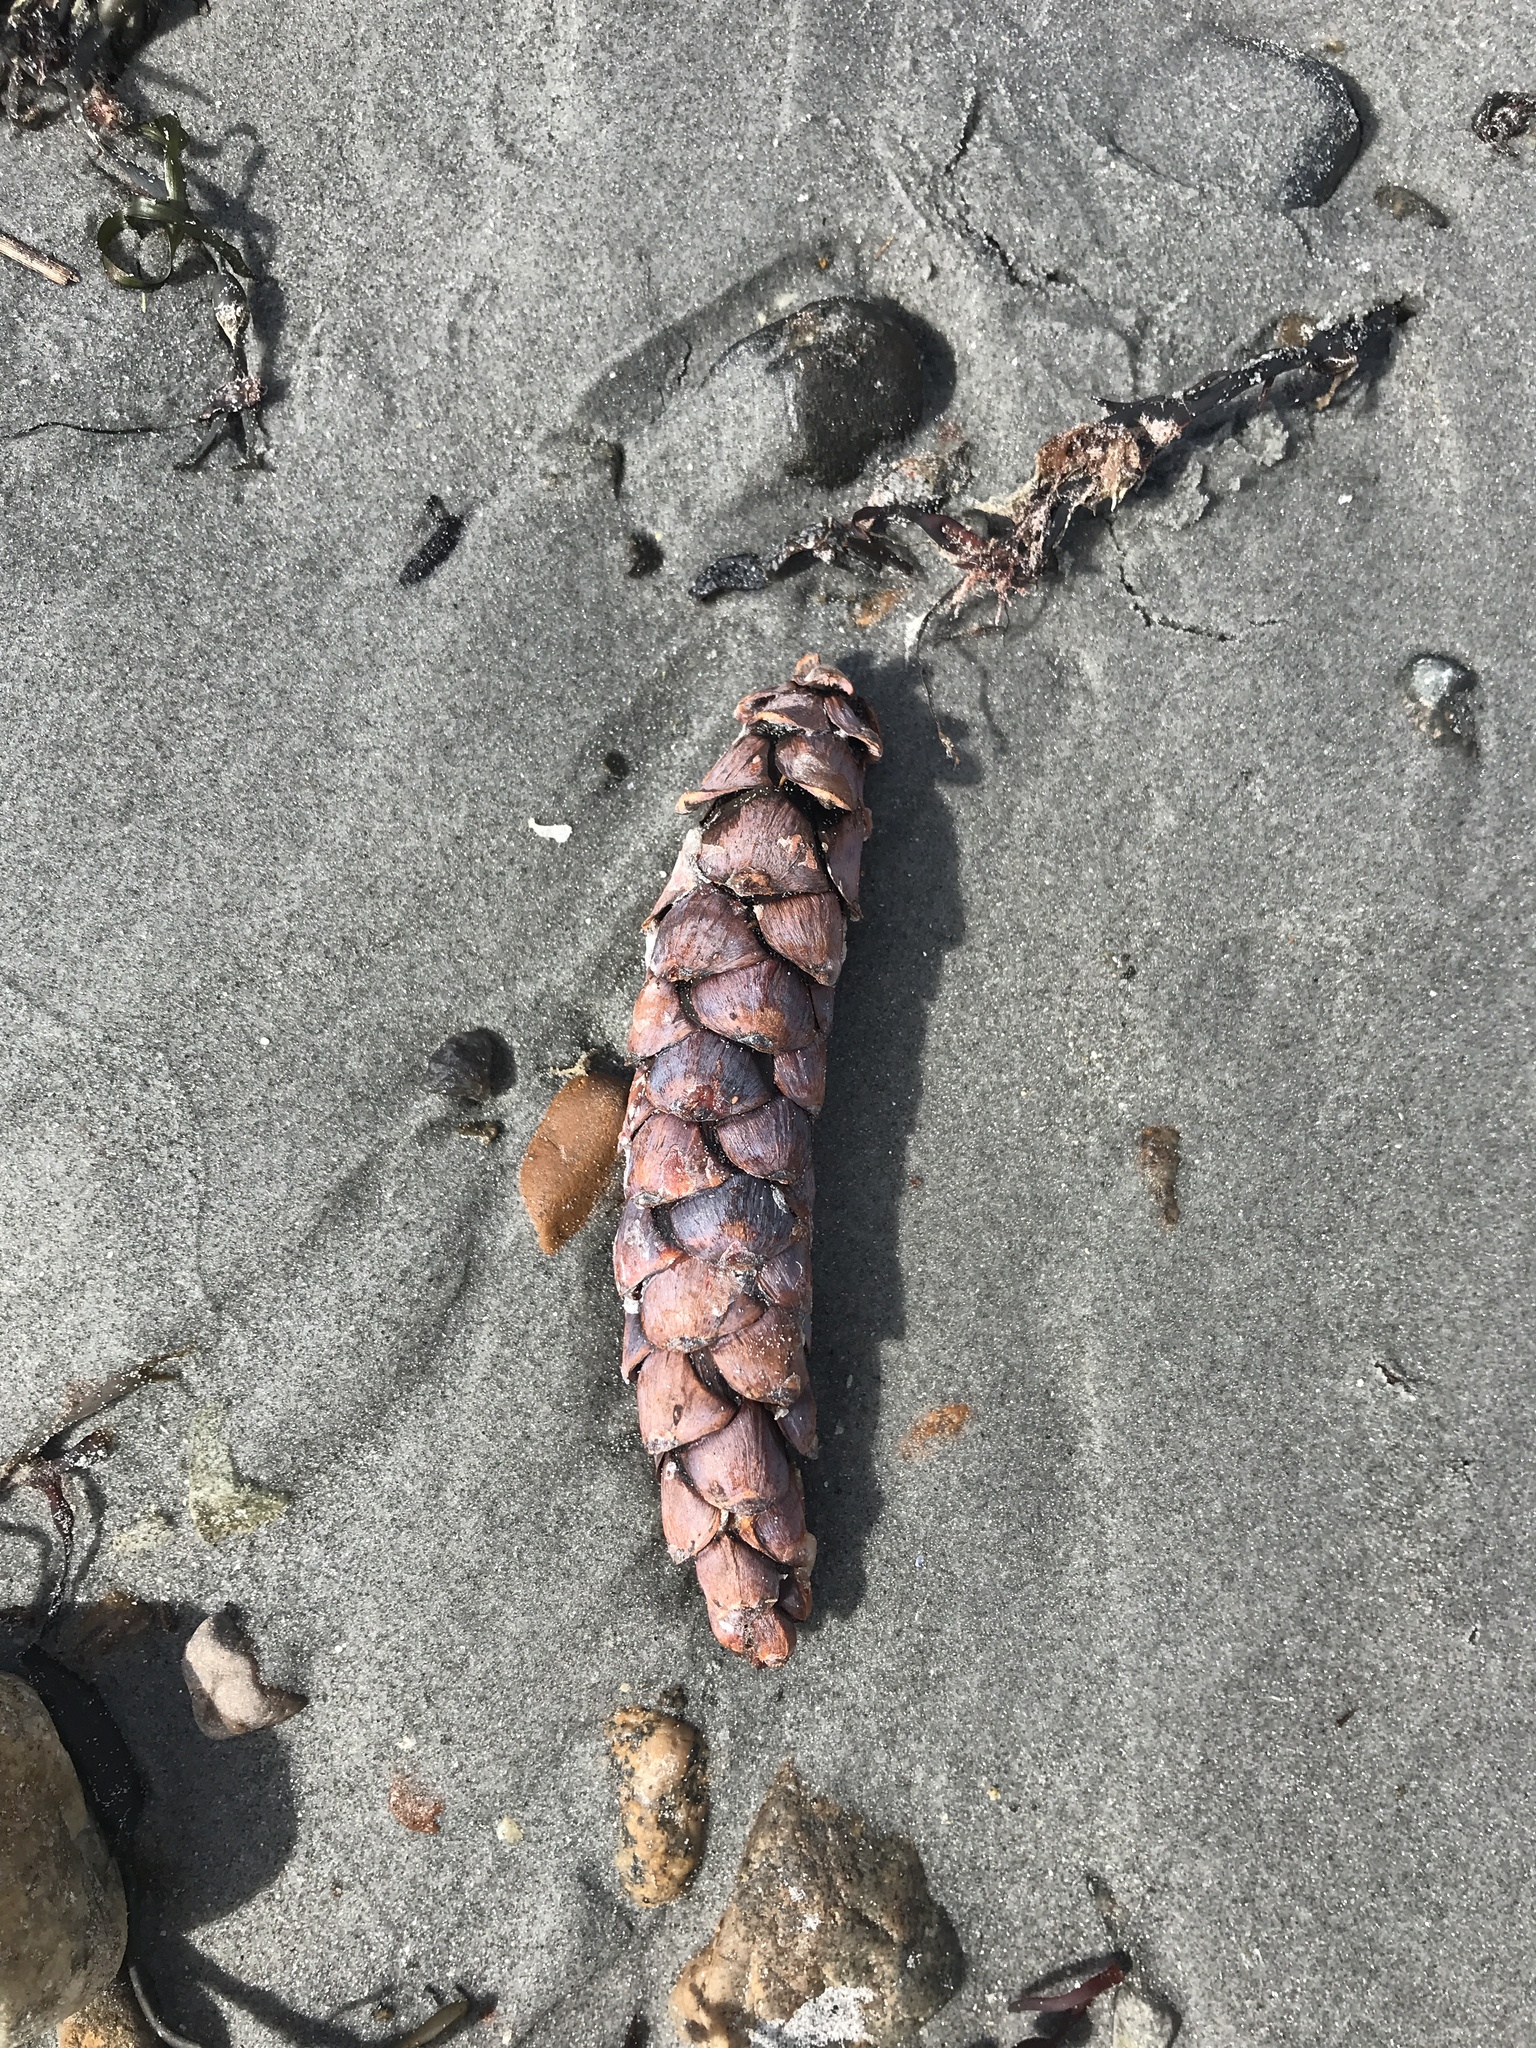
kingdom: Plantae
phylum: Tracheophyta
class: Pinopsida
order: Pinales
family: Pinaceae
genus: Pinus
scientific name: Pinus strobus
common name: Weymouth pine
